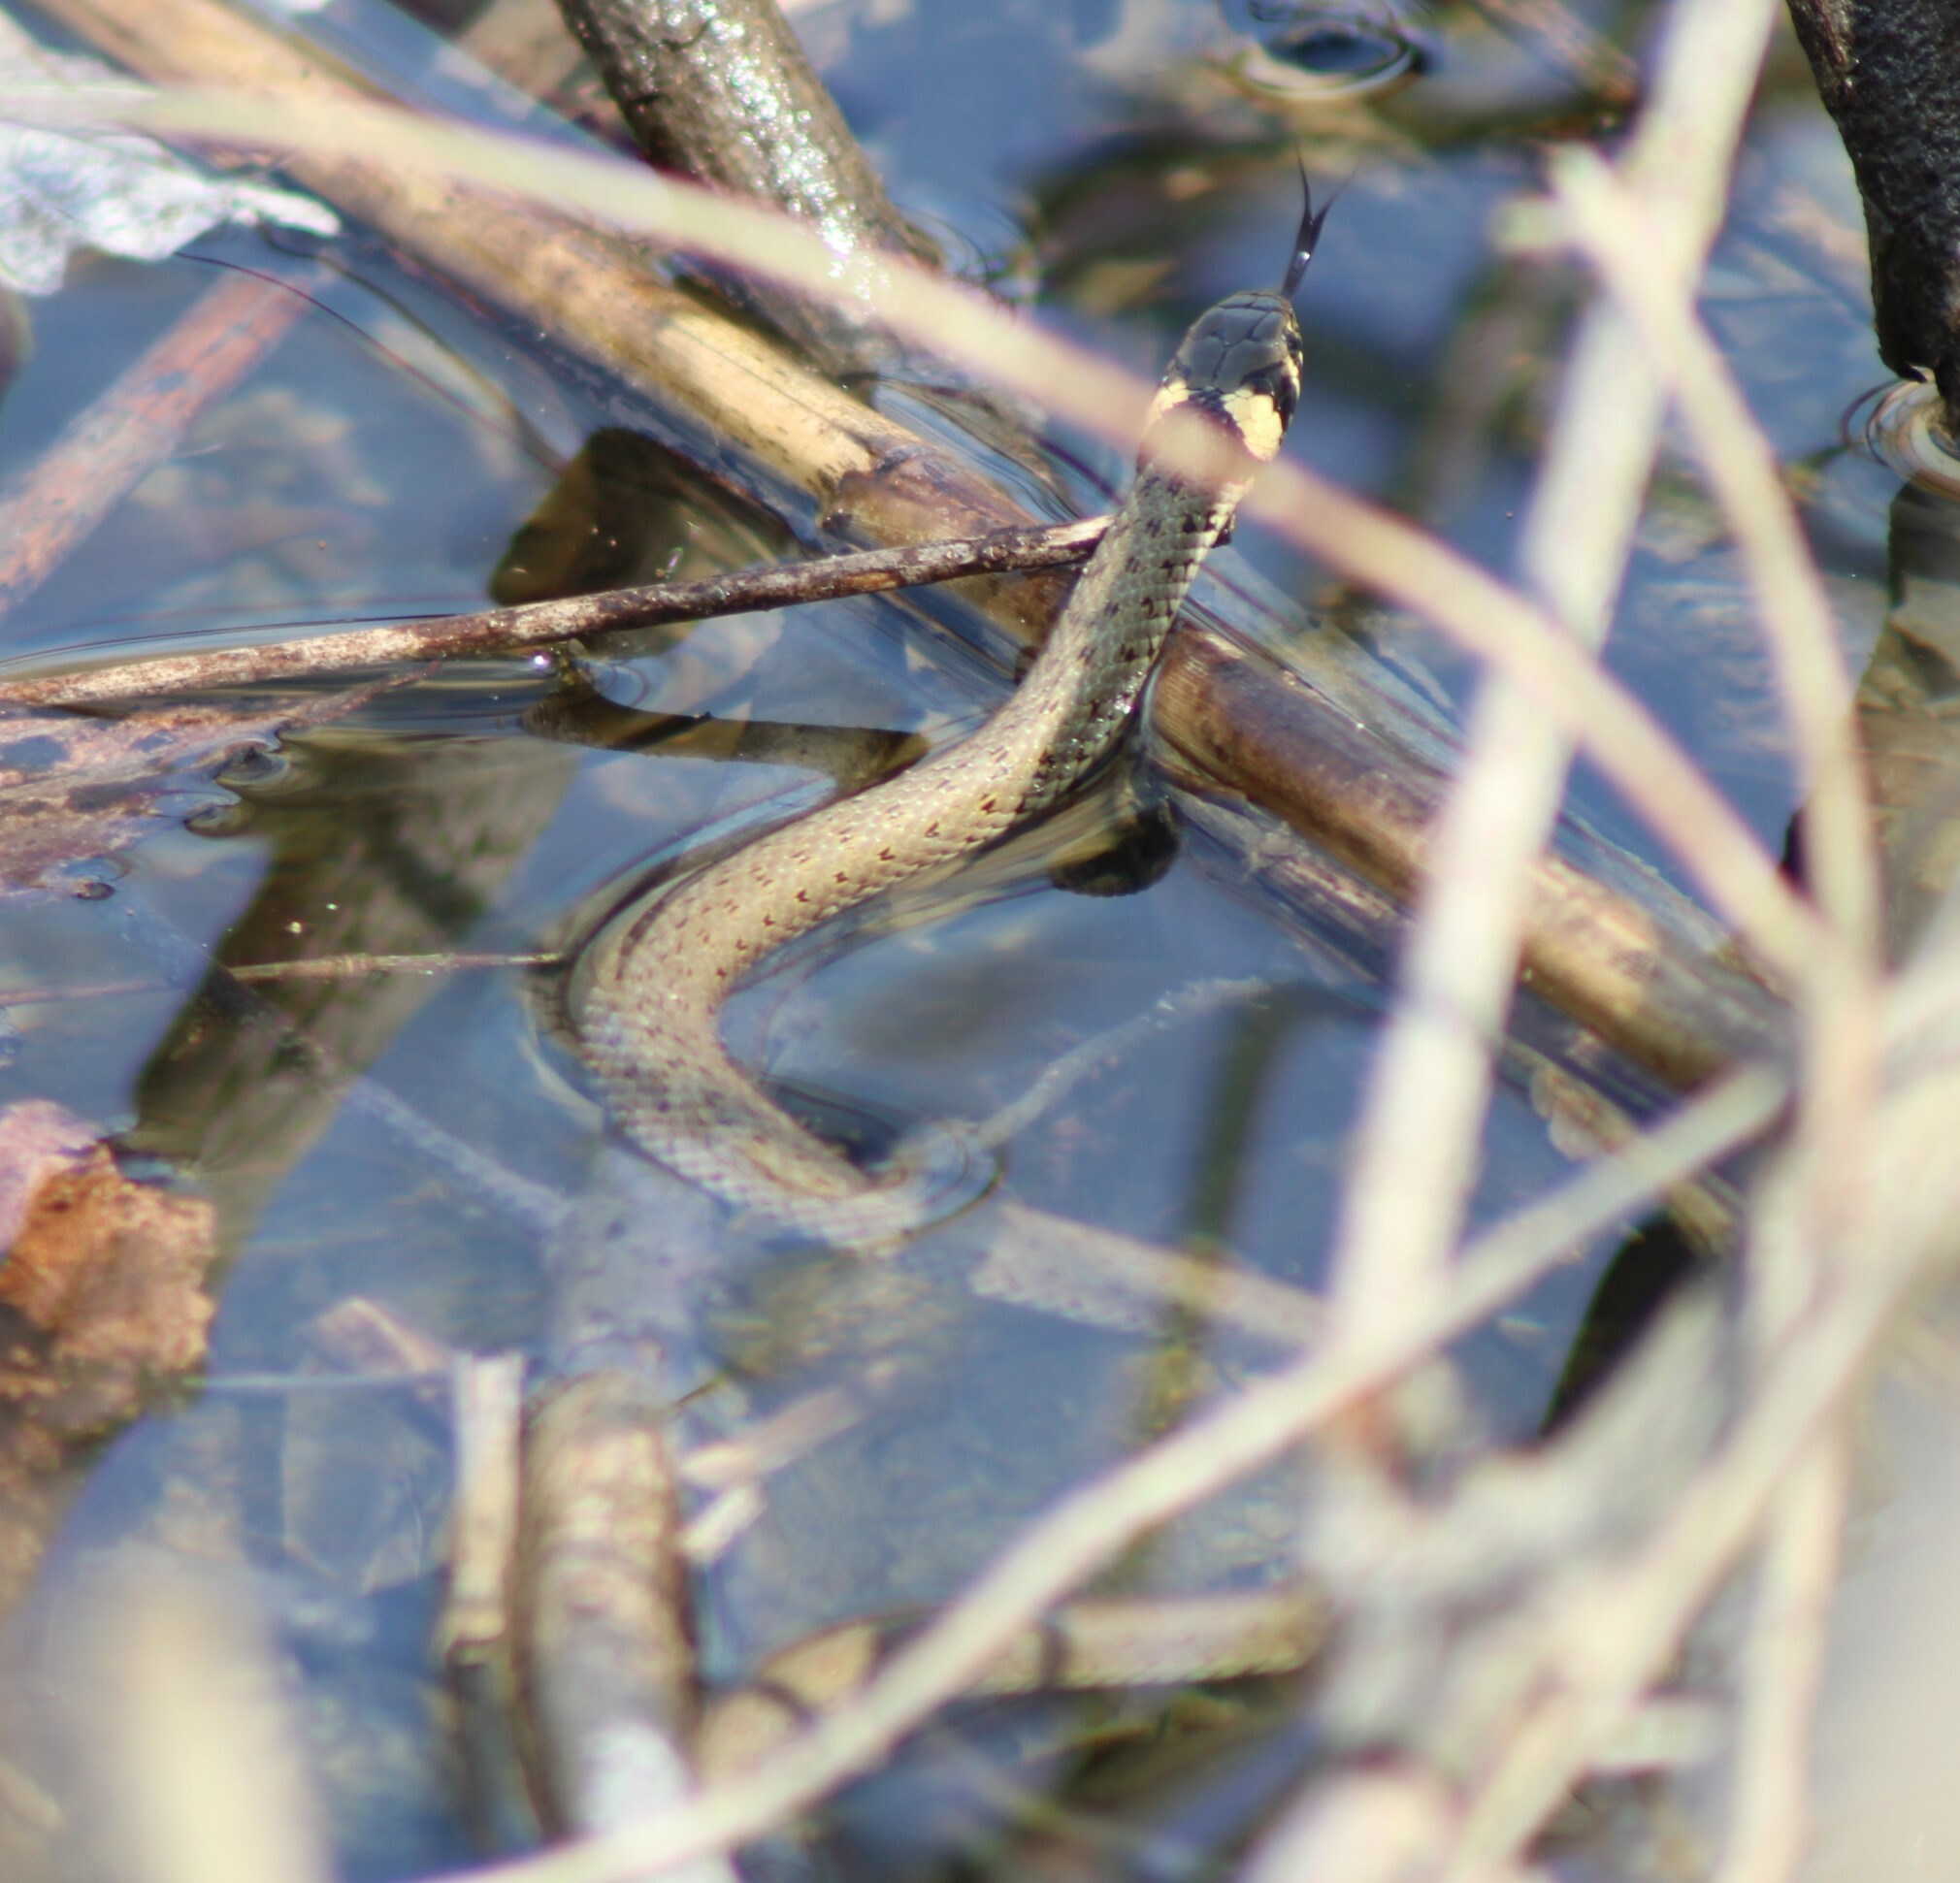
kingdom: Animalia
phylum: Chordata
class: Squamata
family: Colubridae
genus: Natrix
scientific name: Natrix natrix
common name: Grass snake
